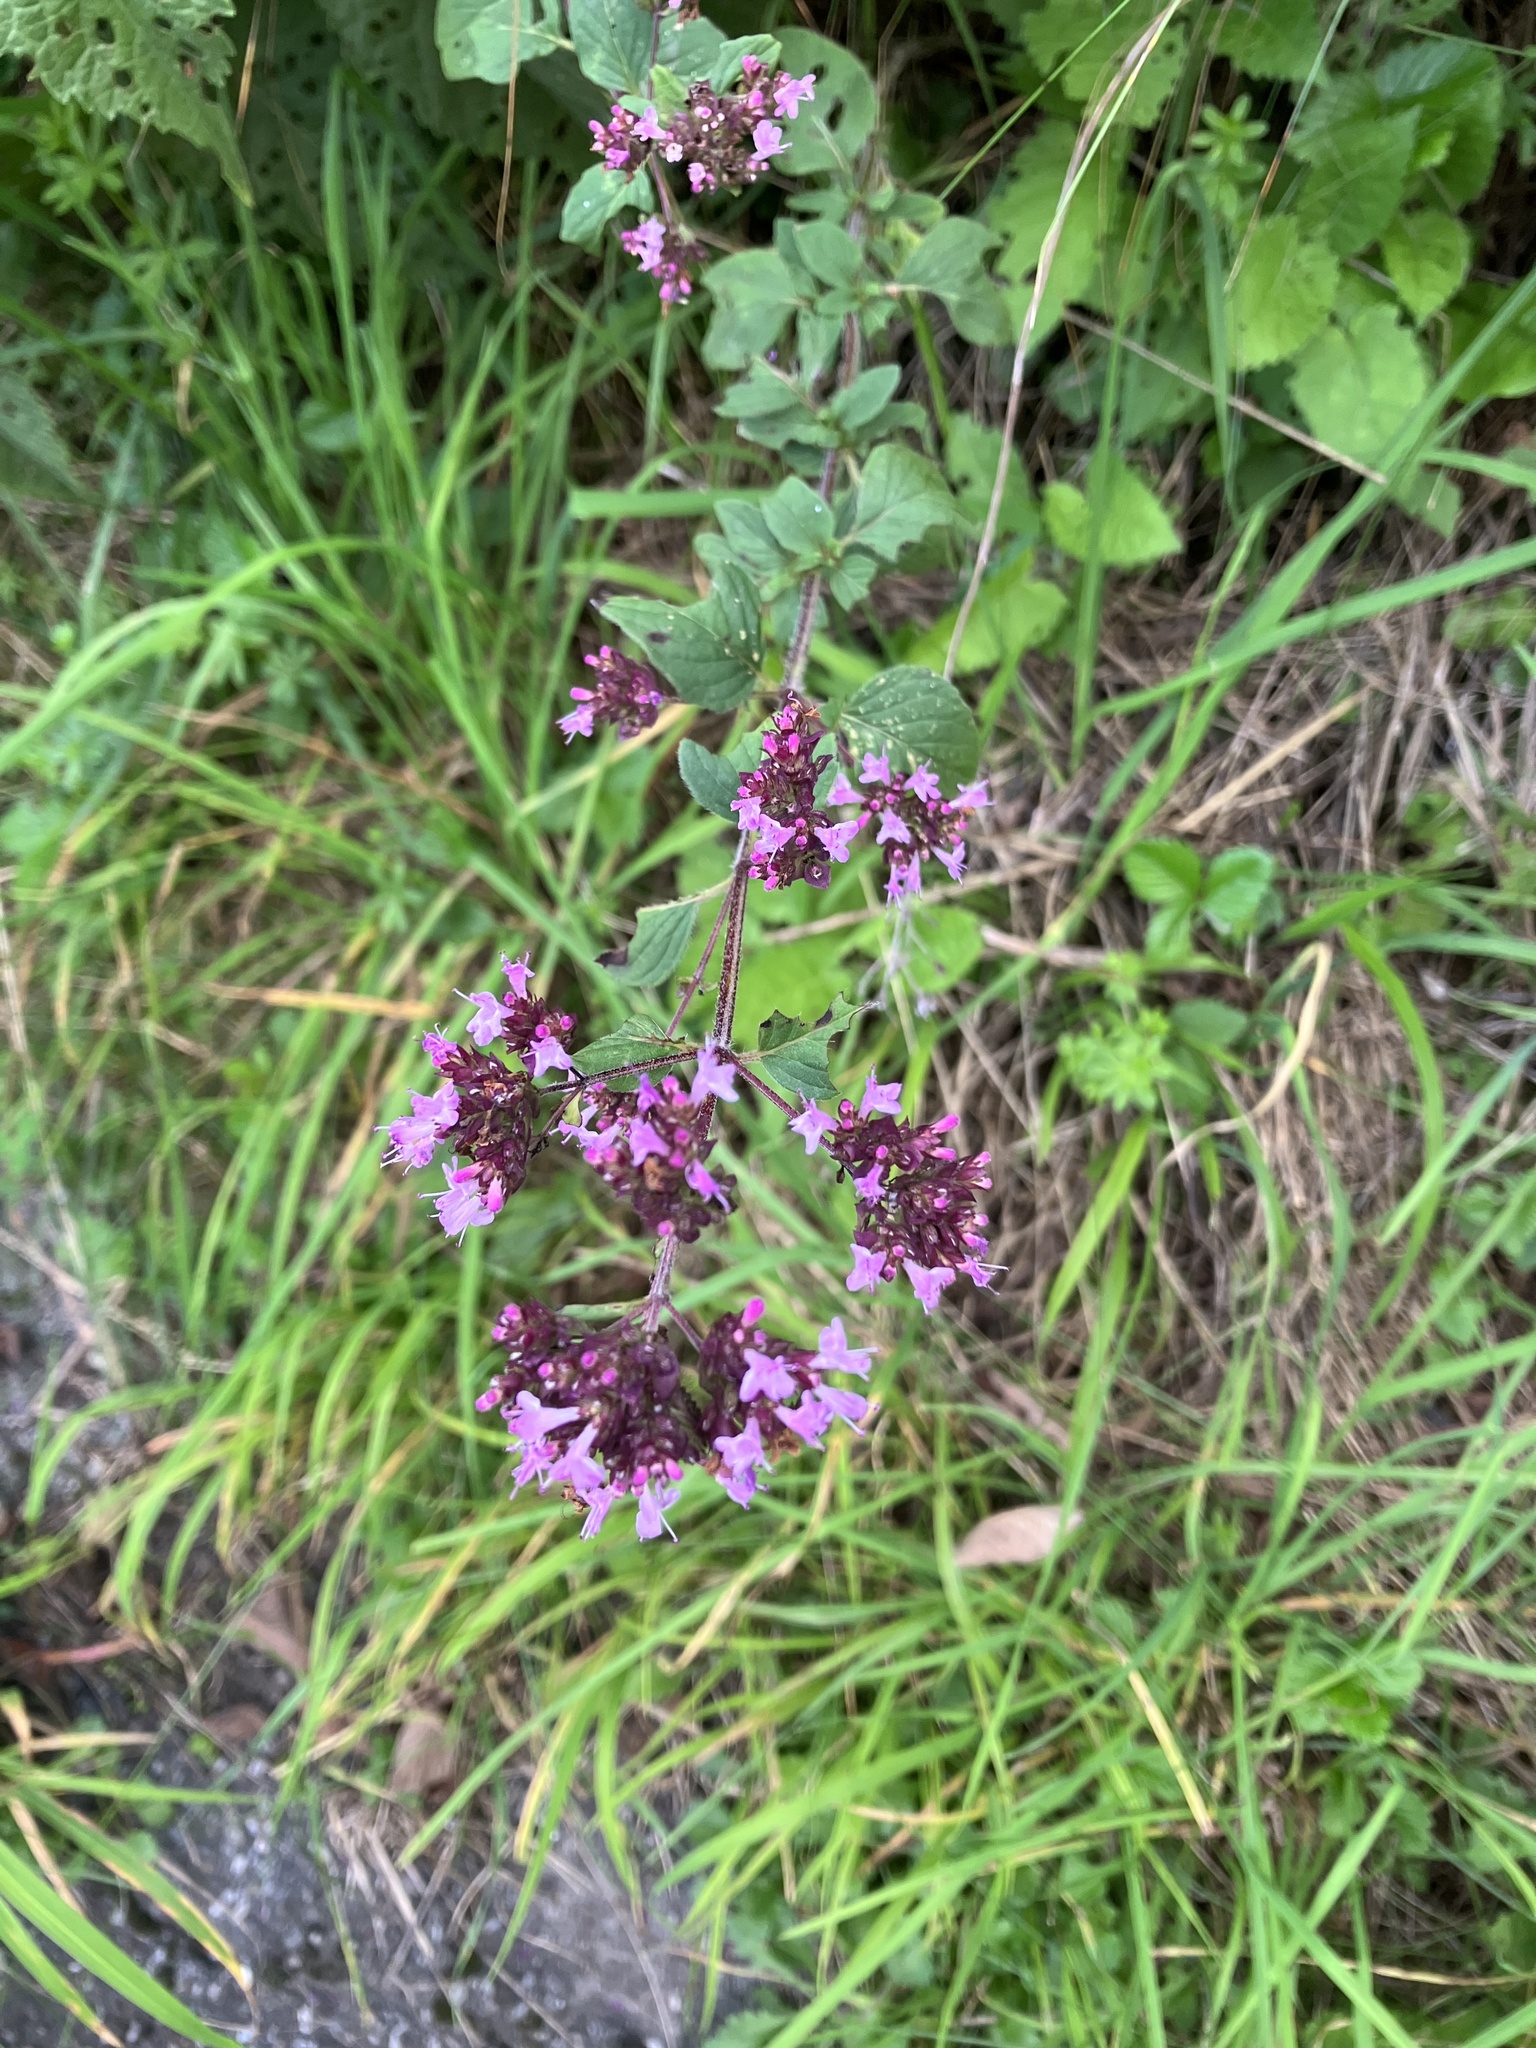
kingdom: Plantae
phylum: Tracheophyta
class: Magnoliopsida
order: Lamiales
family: Lamiaceae
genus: Origanum
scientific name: Origanum vulgare
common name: Wild marjoram
